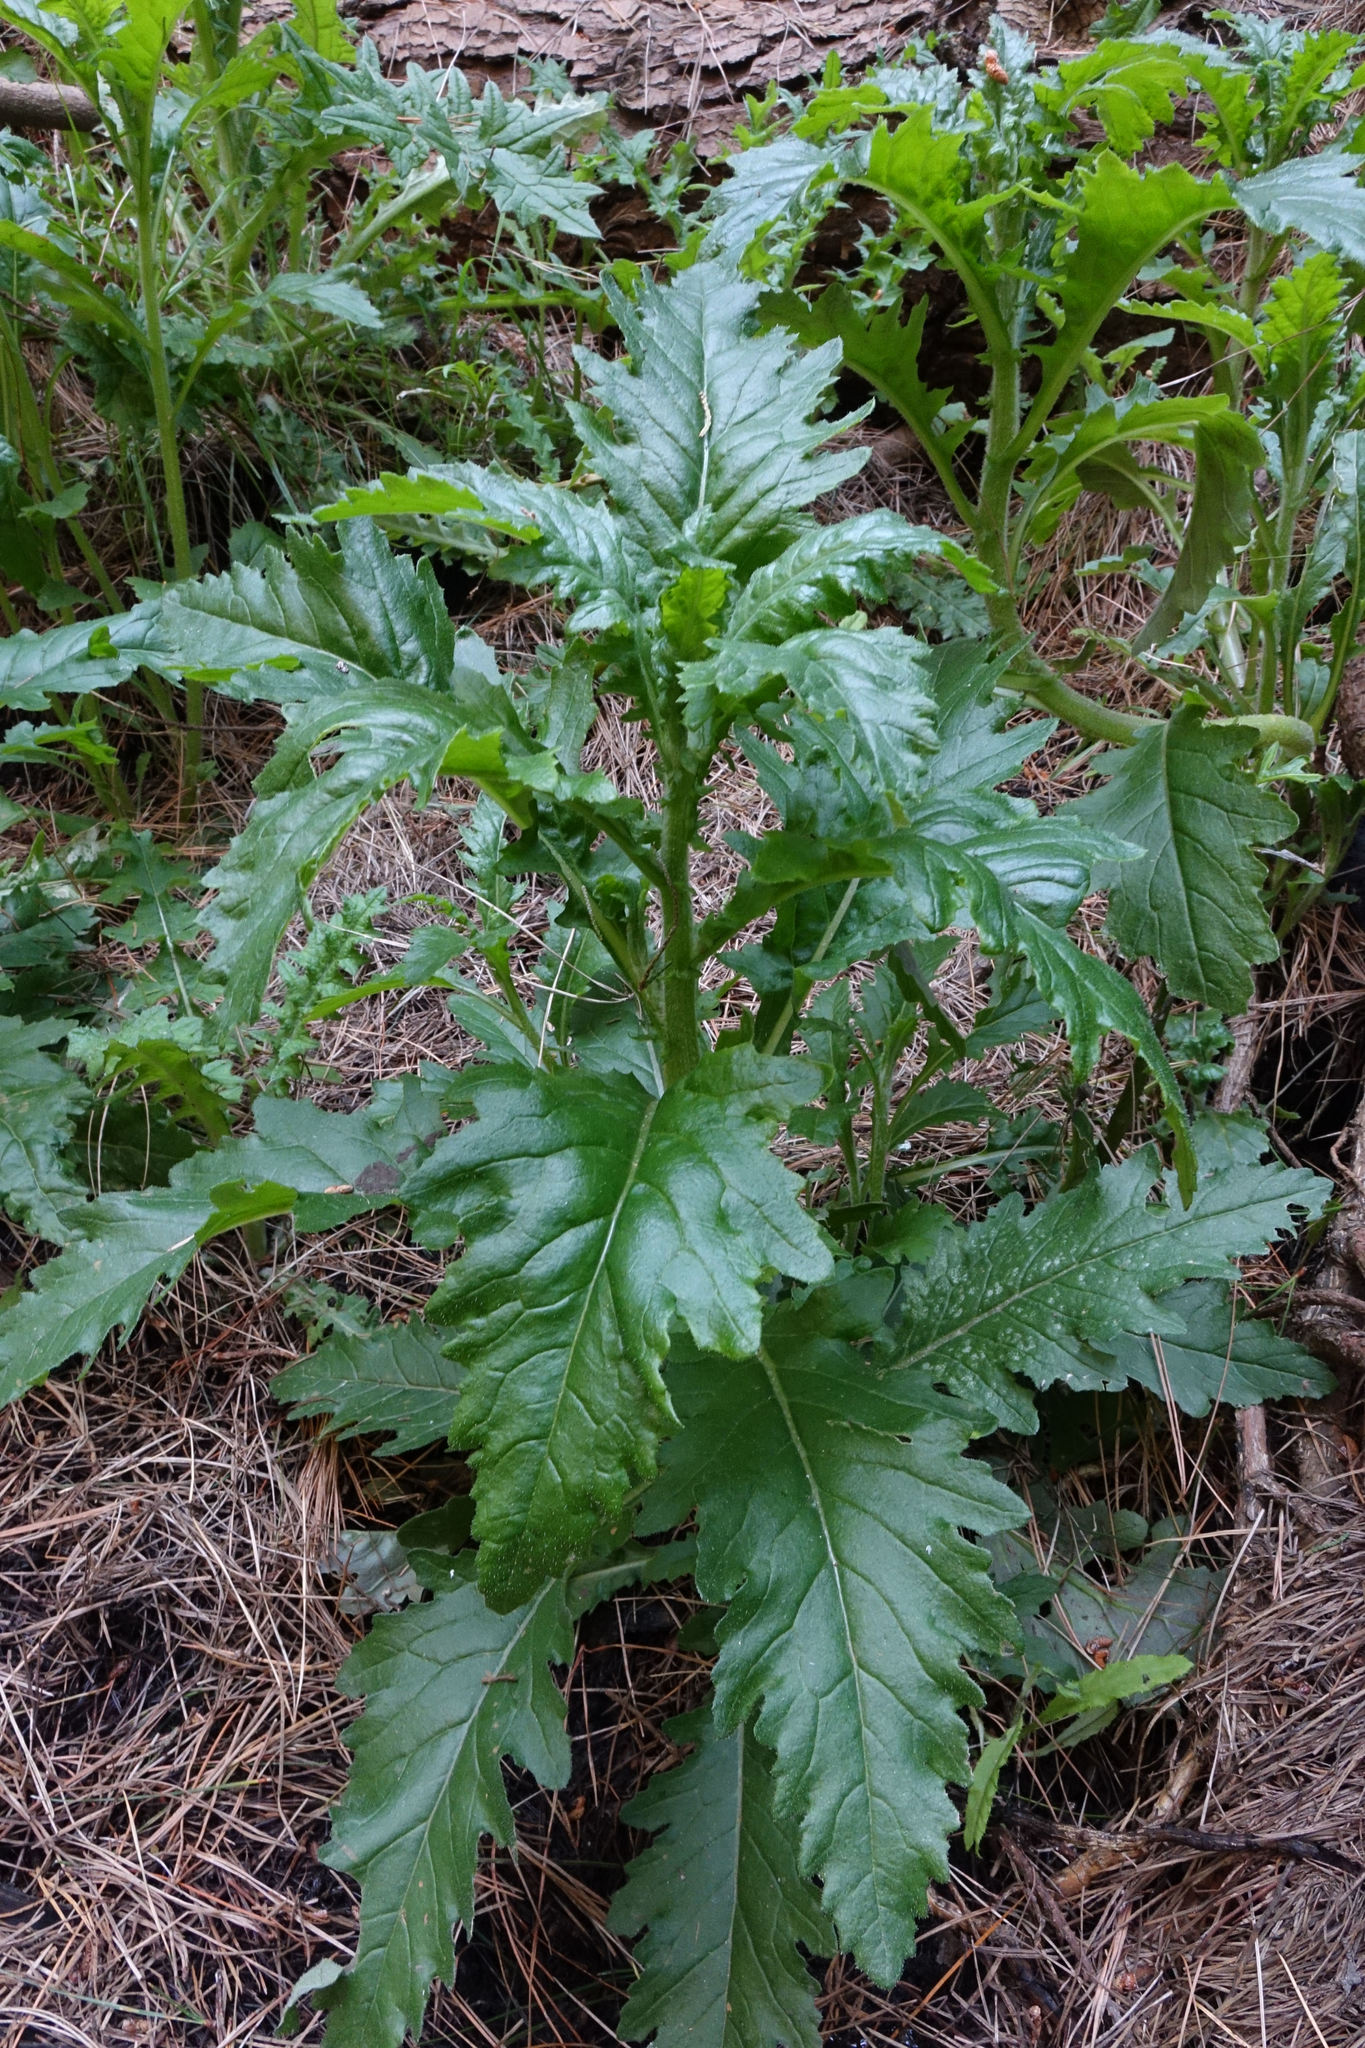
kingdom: Plantae
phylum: Tracheophyta
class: Magnoliopsida
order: Asterales
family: Asteraceae
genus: Senecio
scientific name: Senecio biserratus
